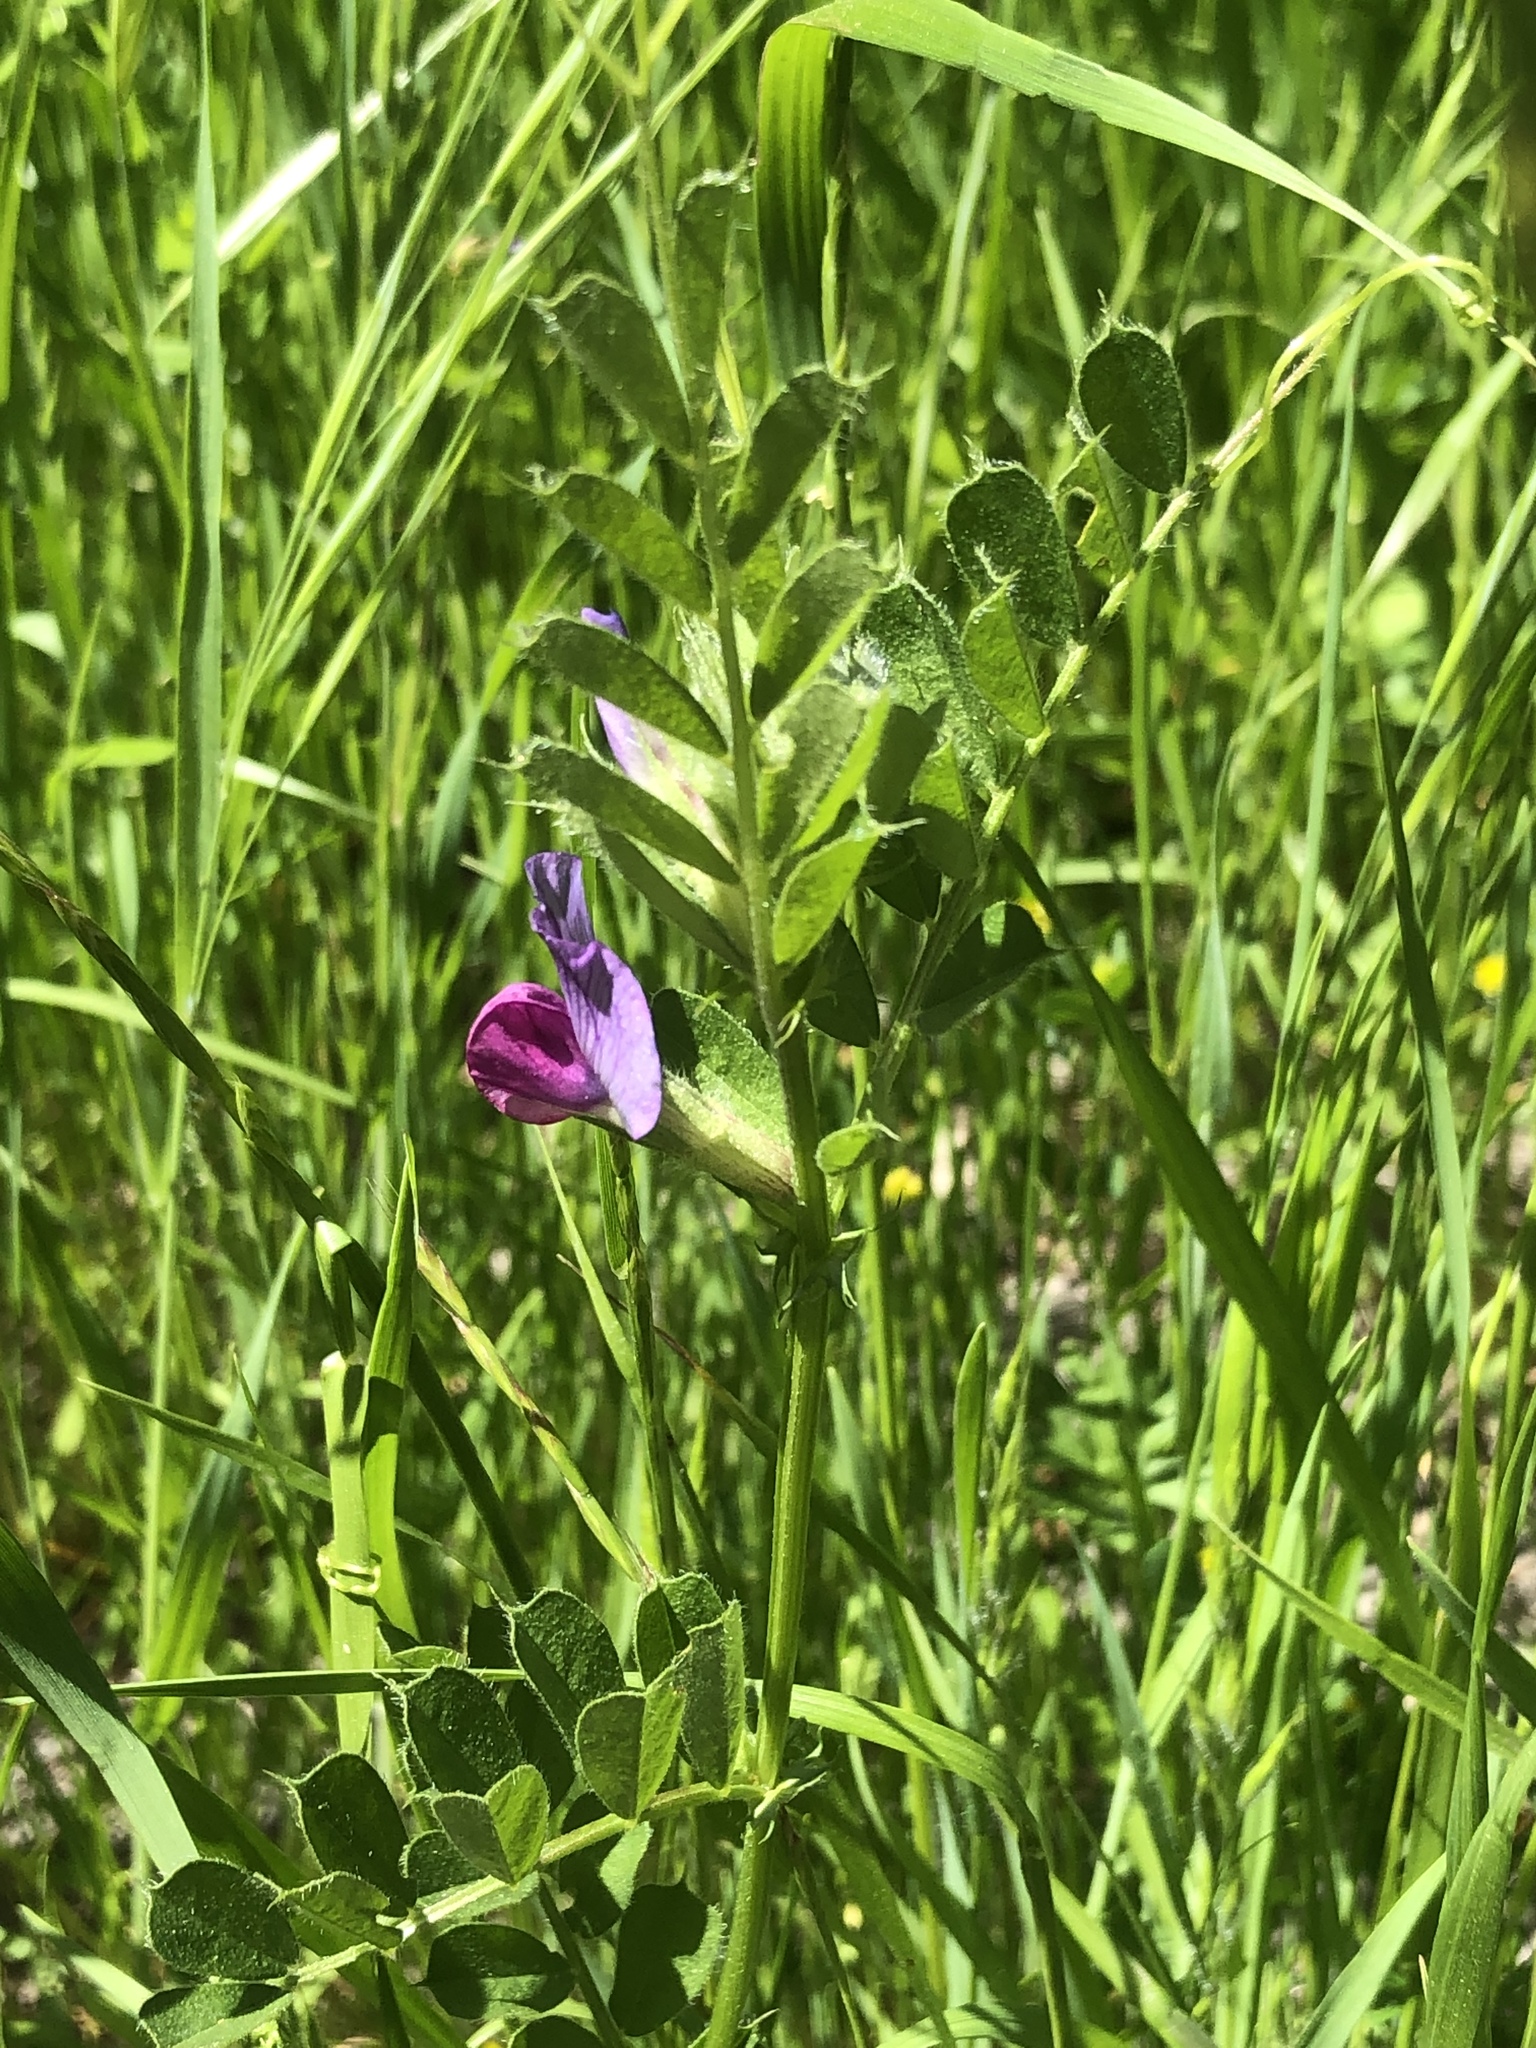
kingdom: Plantae
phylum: Tracheophyta
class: Magnoliopsida
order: Fabales
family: Fabaceae
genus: Vicia
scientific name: Vicia sativa
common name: Garden vetch
